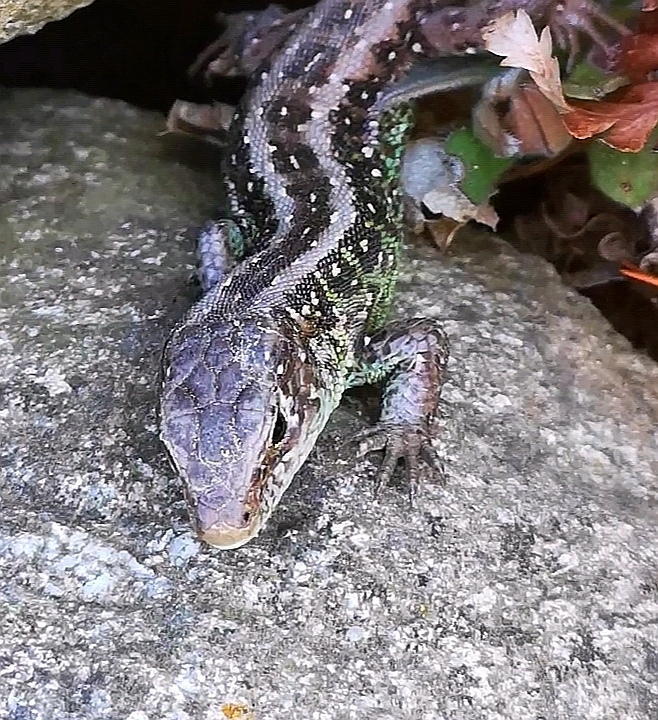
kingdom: Animalia
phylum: Chordata
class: Squamata
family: Lacertidae
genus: Lacerta
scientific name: Lacerta agilis
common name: Sand lizard
